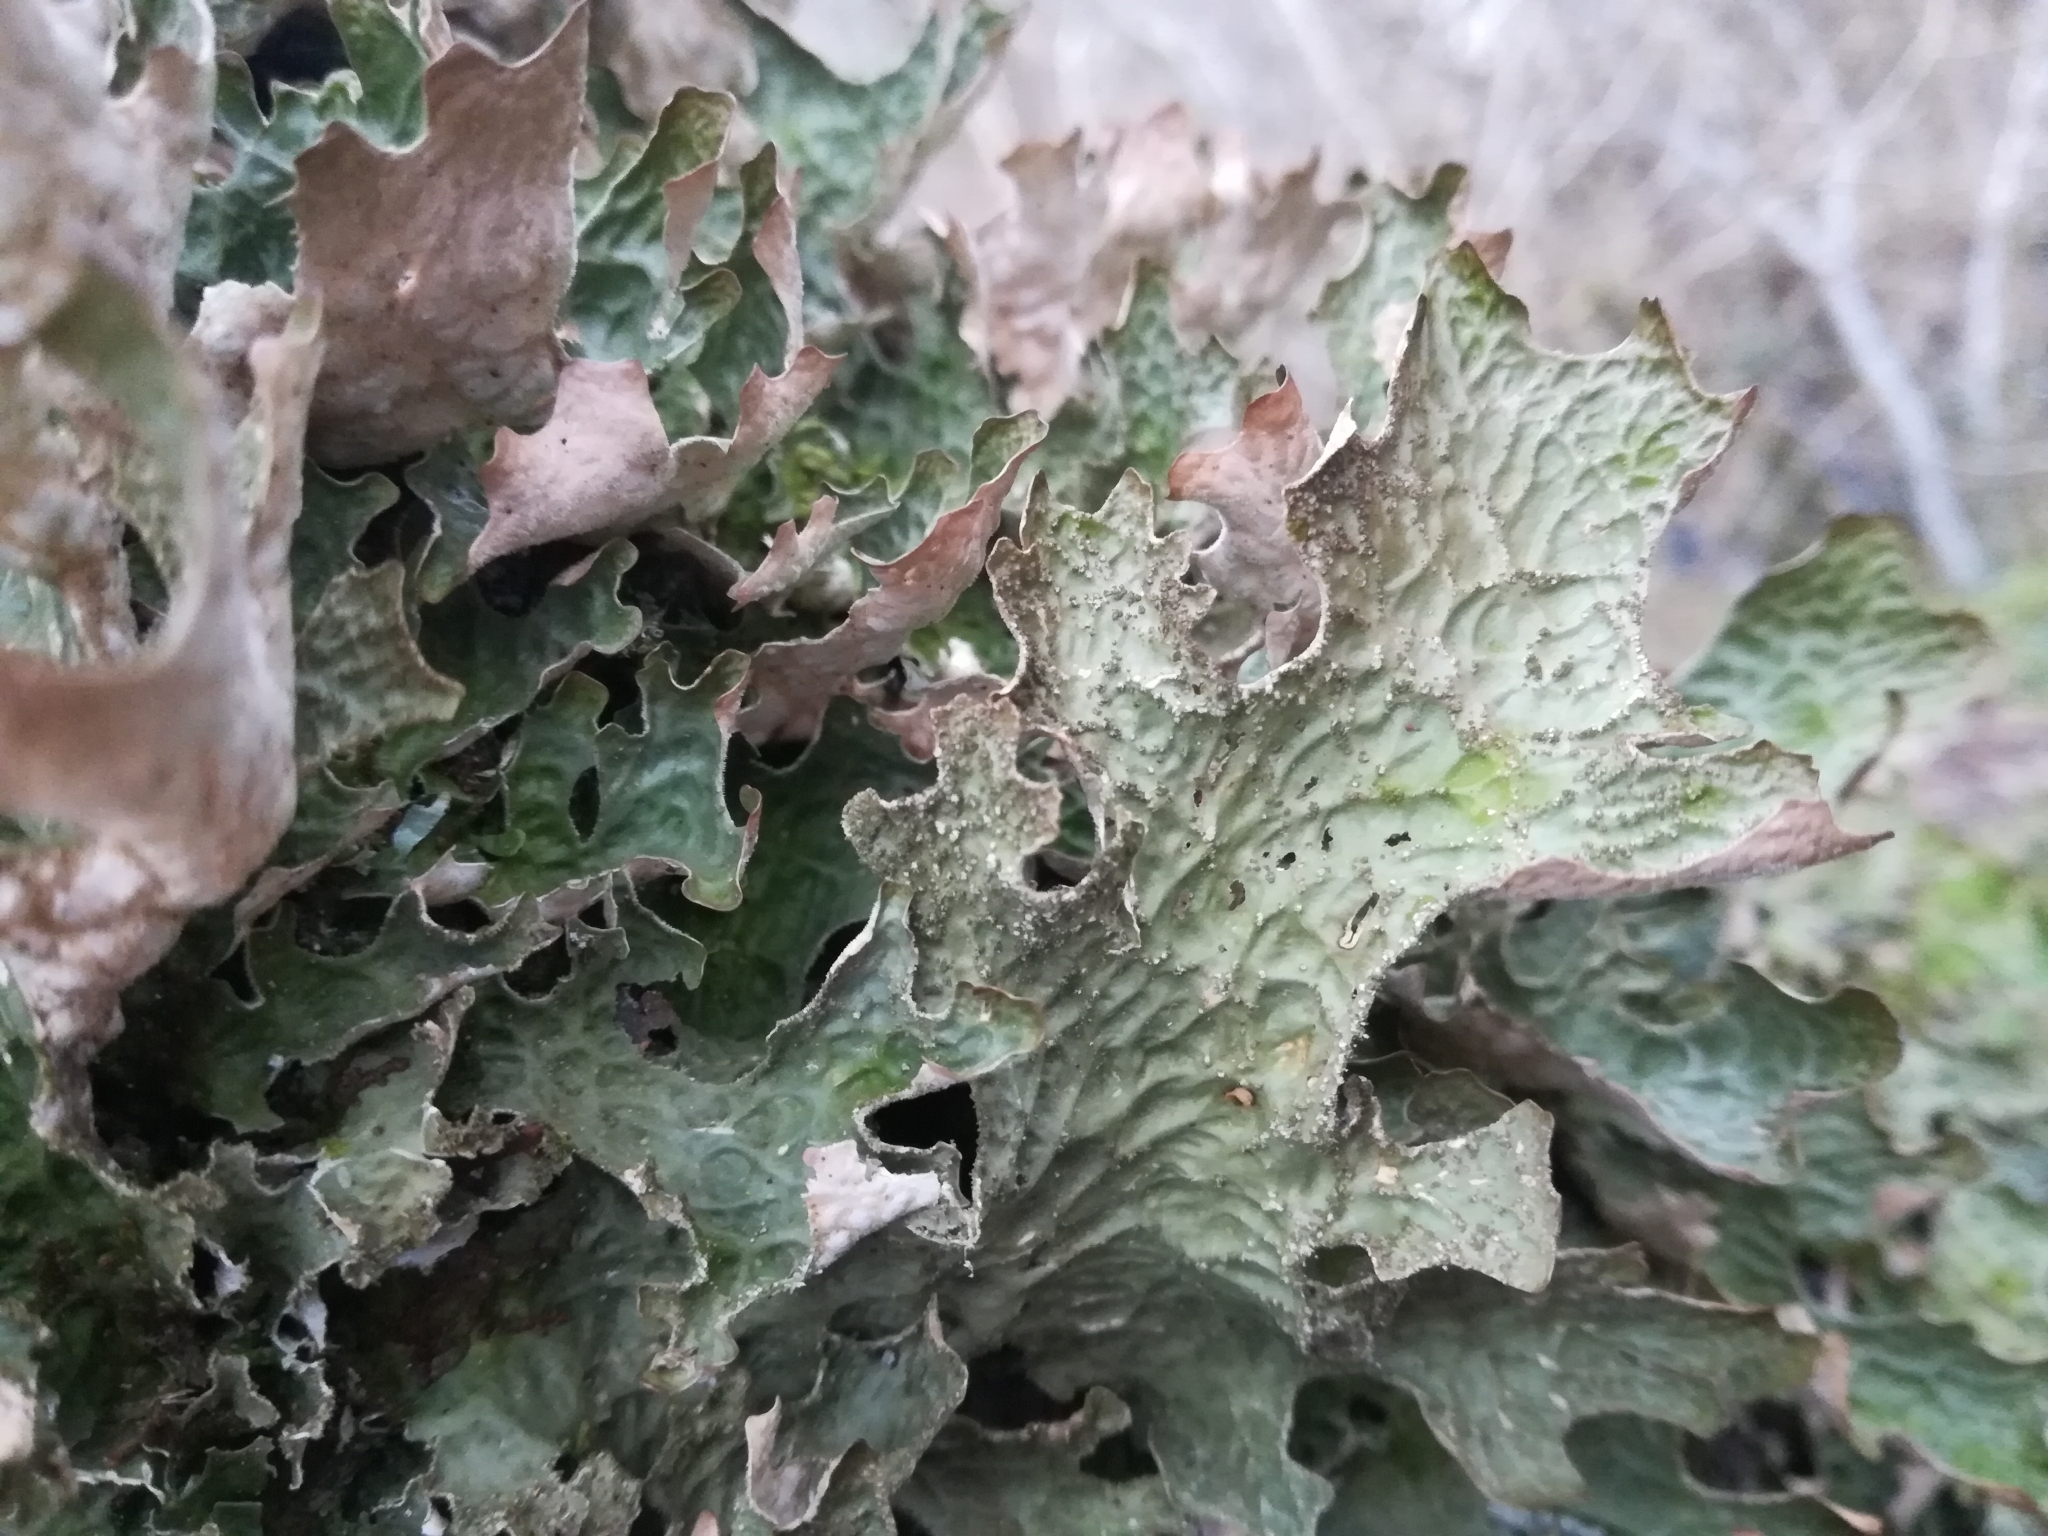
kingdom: Fungi
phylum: Ascomycota
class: Lecanoromycetes
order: Peltigerales
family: Lobariaceae
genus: Lobaria
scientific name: Lobaria pulmonaria
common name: Lungwort
